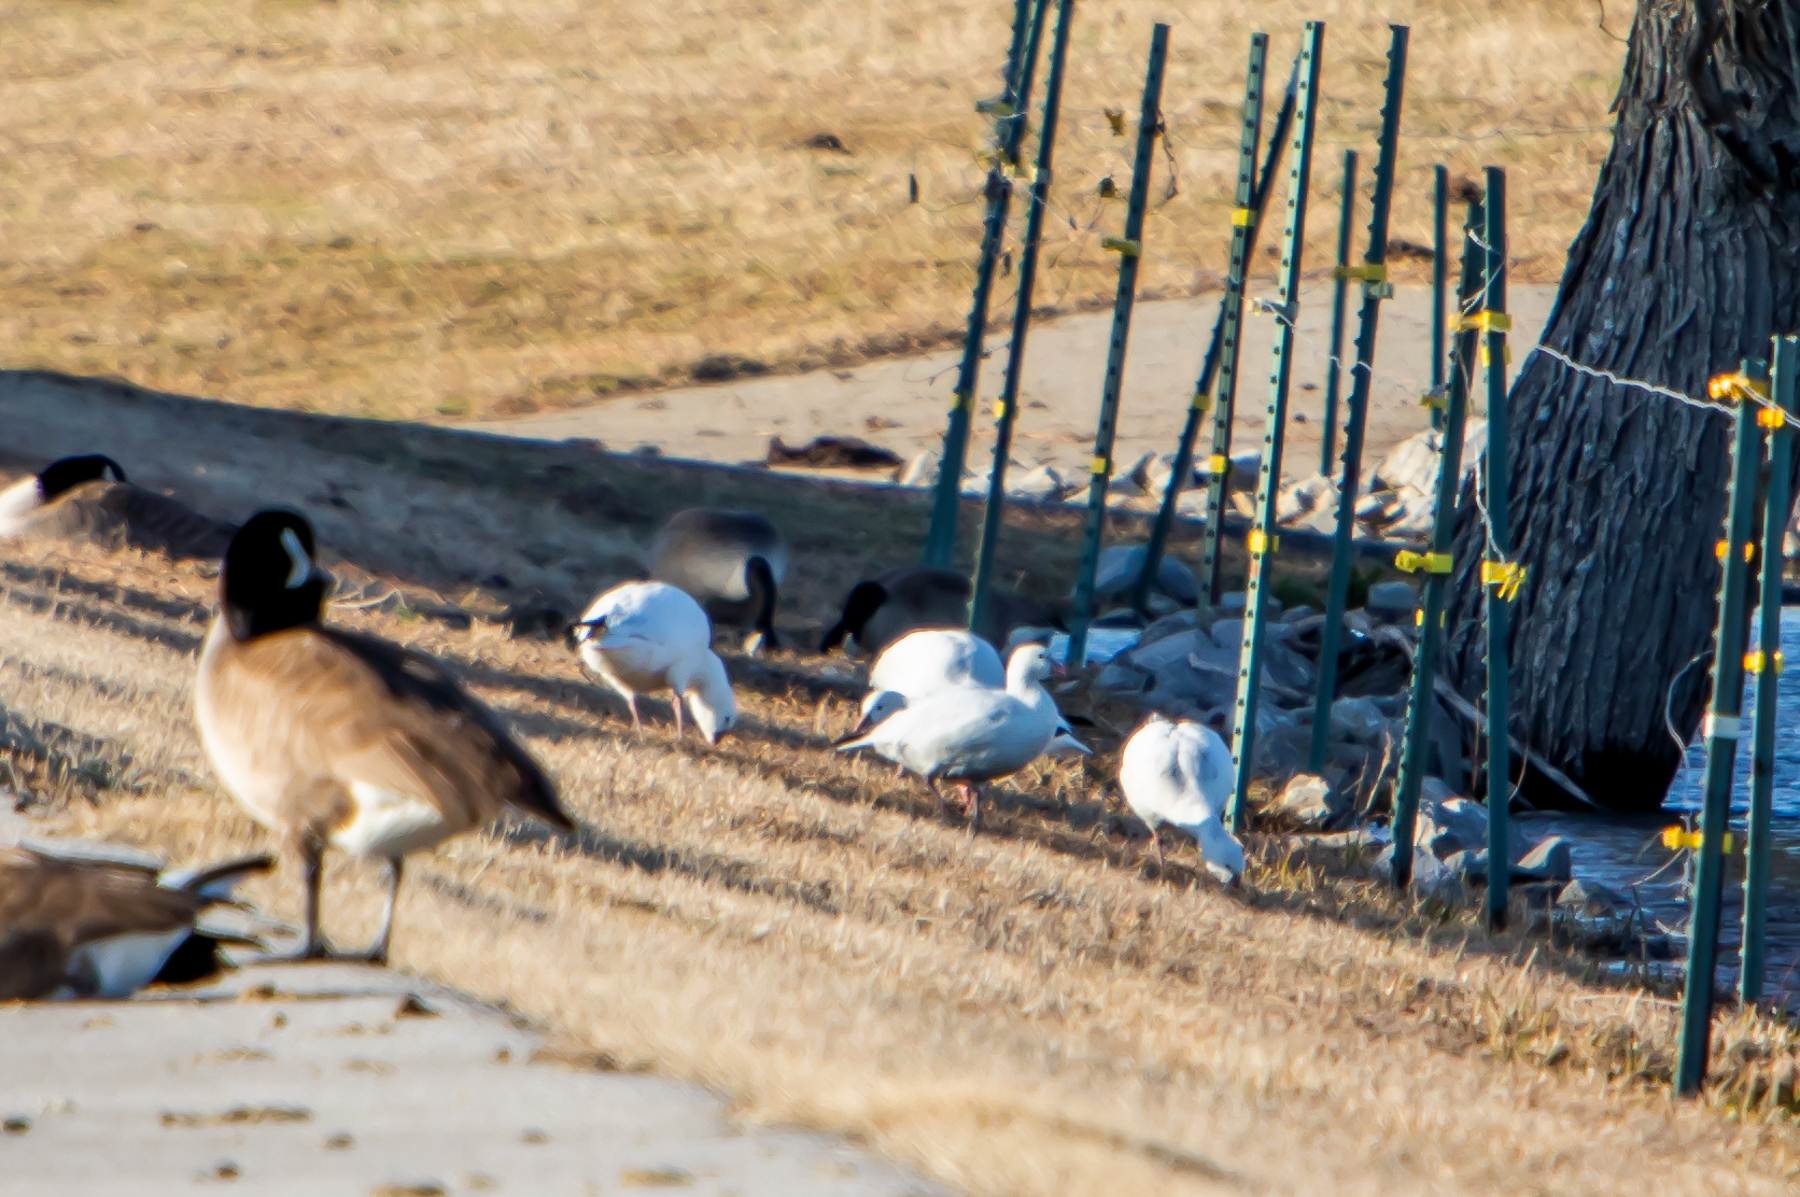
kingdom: Animalia
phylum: Chordata
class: Aves
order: Anseriformes
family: Anatidae
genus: Anser
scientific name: Anser caerulescens
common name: Snow goose
